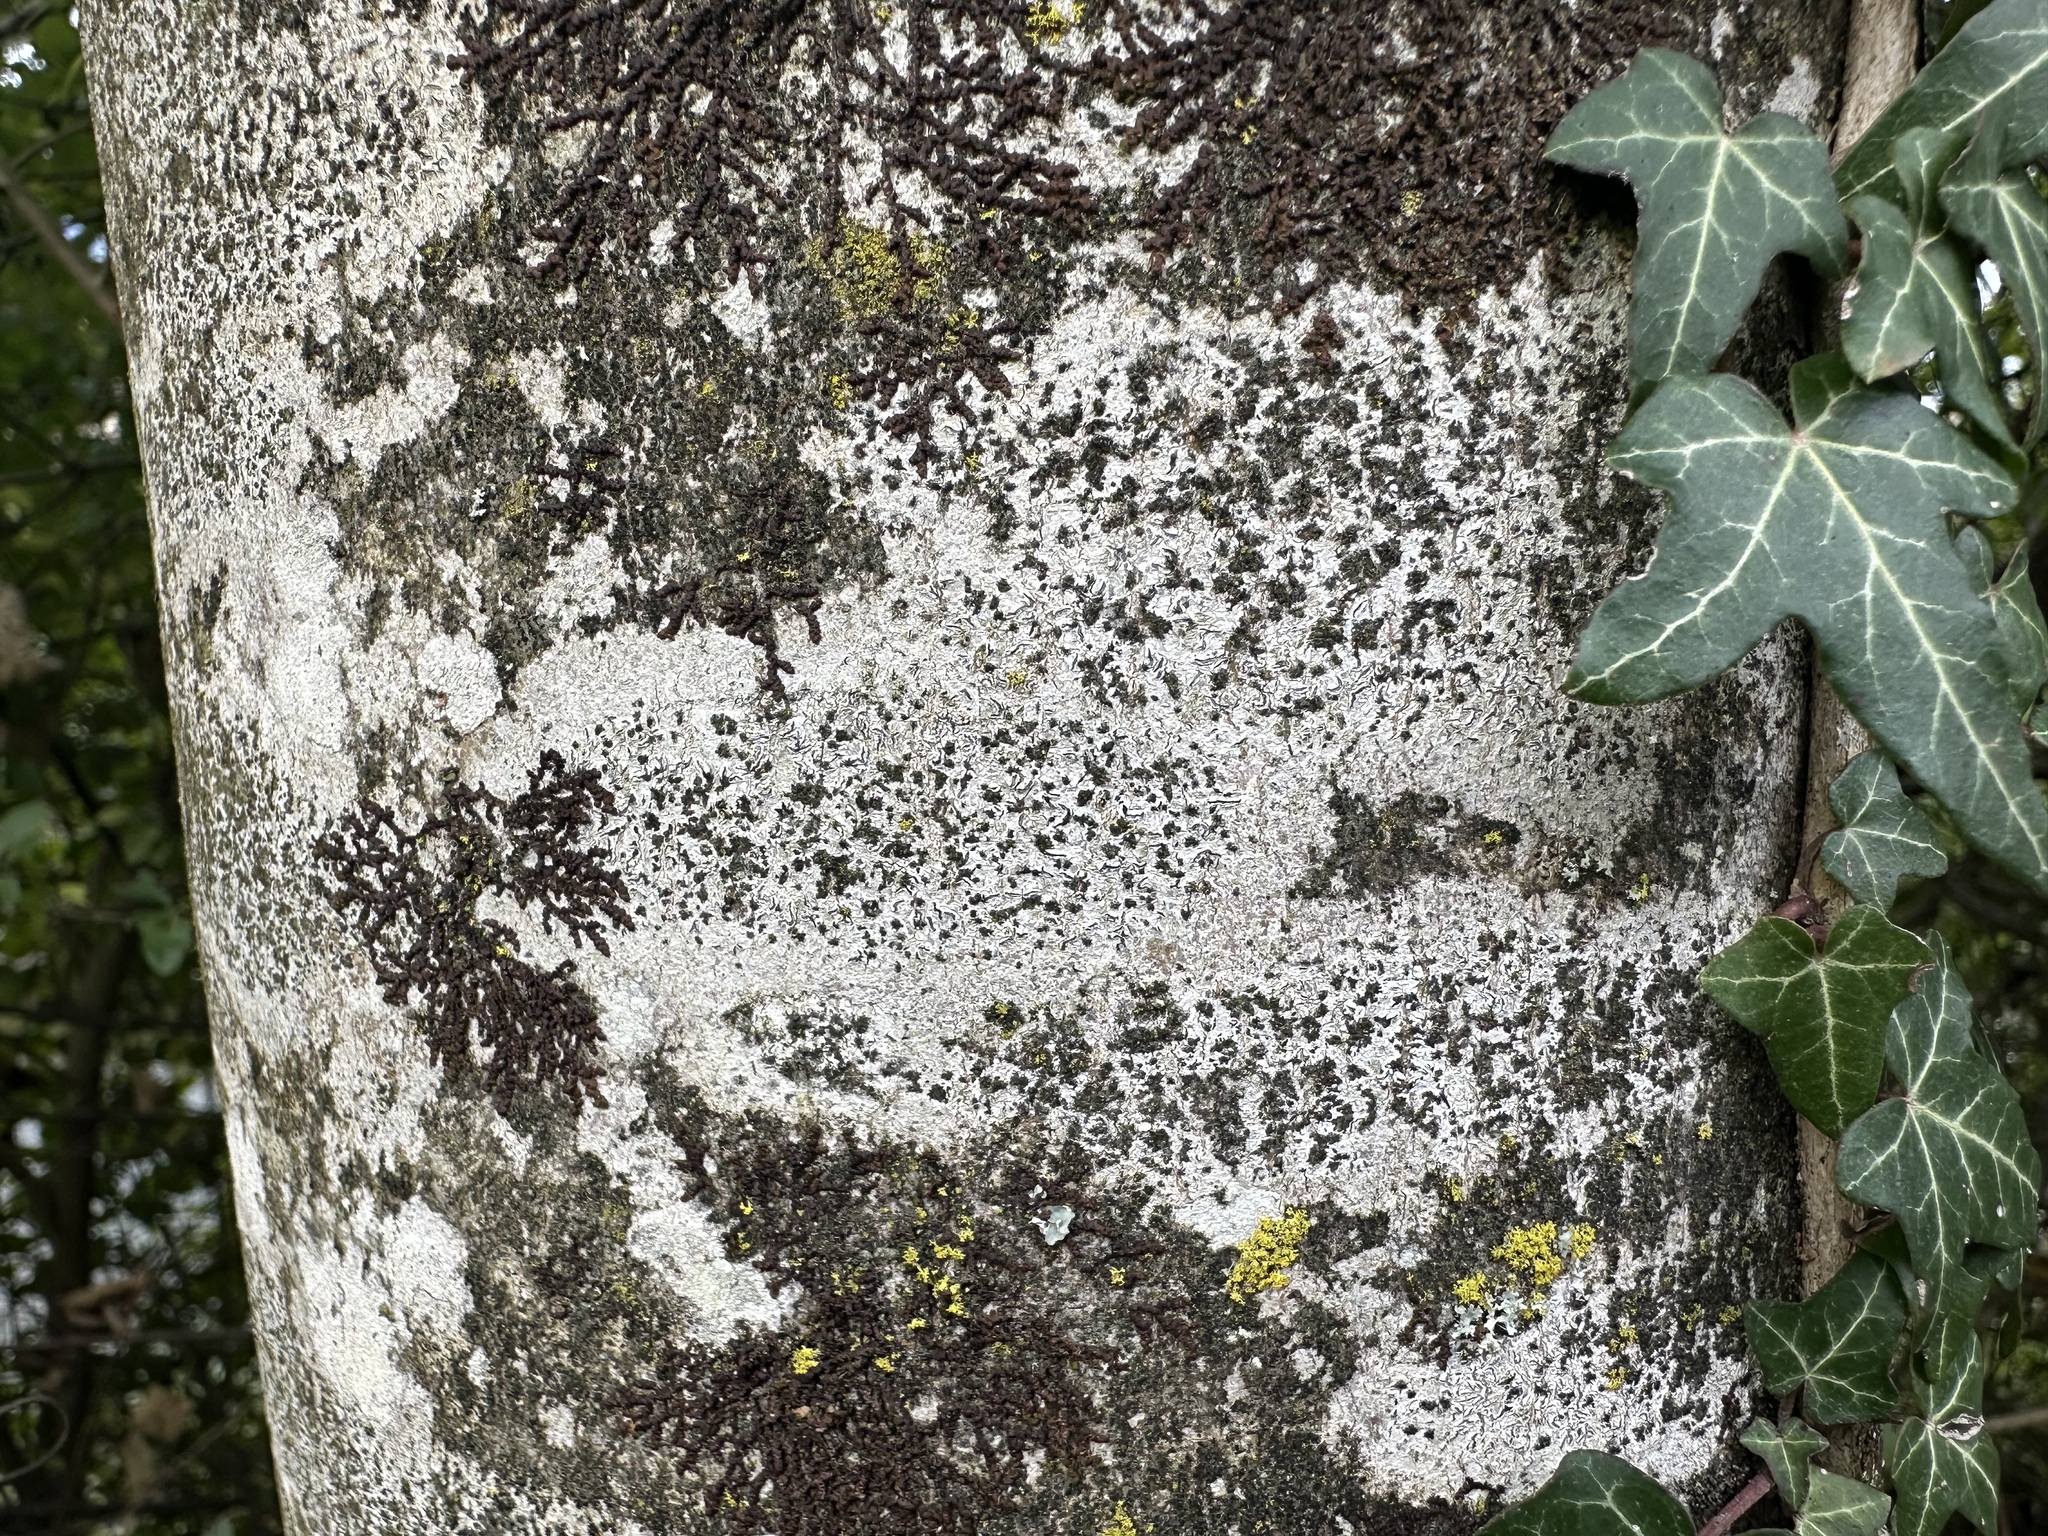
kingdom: Fungi
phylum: Ascomycota
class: Lecanoromycetes
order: Ostropales
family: Graphidaceae
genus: Graphis
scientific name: Graphis scripta
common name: Script lichen
